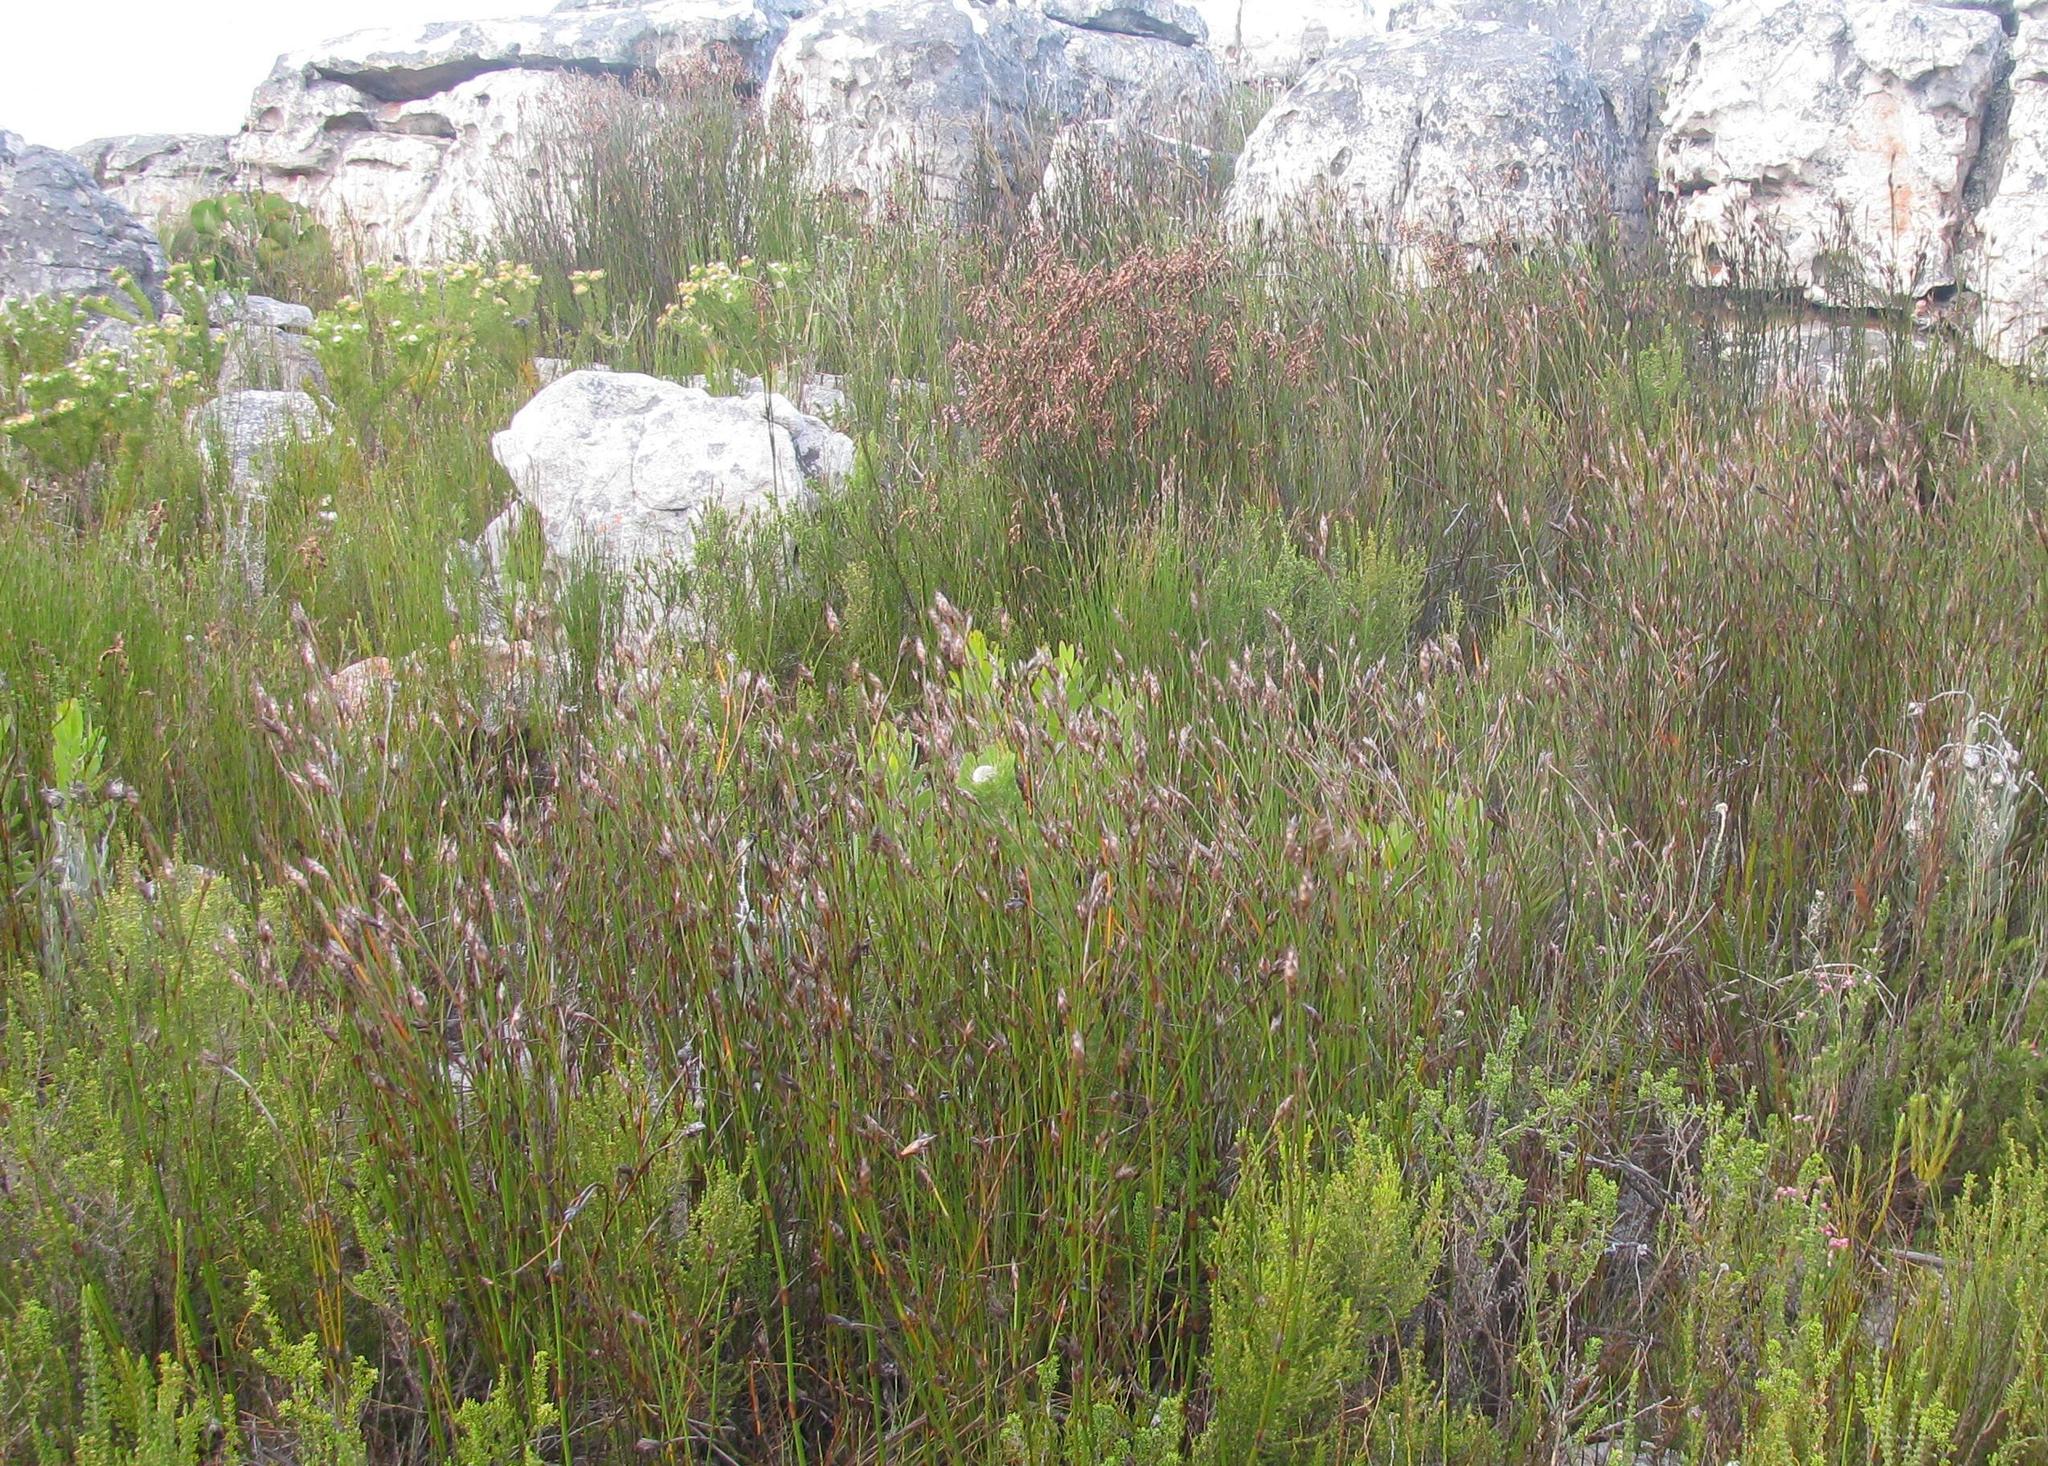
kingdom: Plantae
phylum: Tracheophyta
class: Liliopsida
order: Poales
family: Restionaceae
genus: Restio
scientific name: Restio egregius
